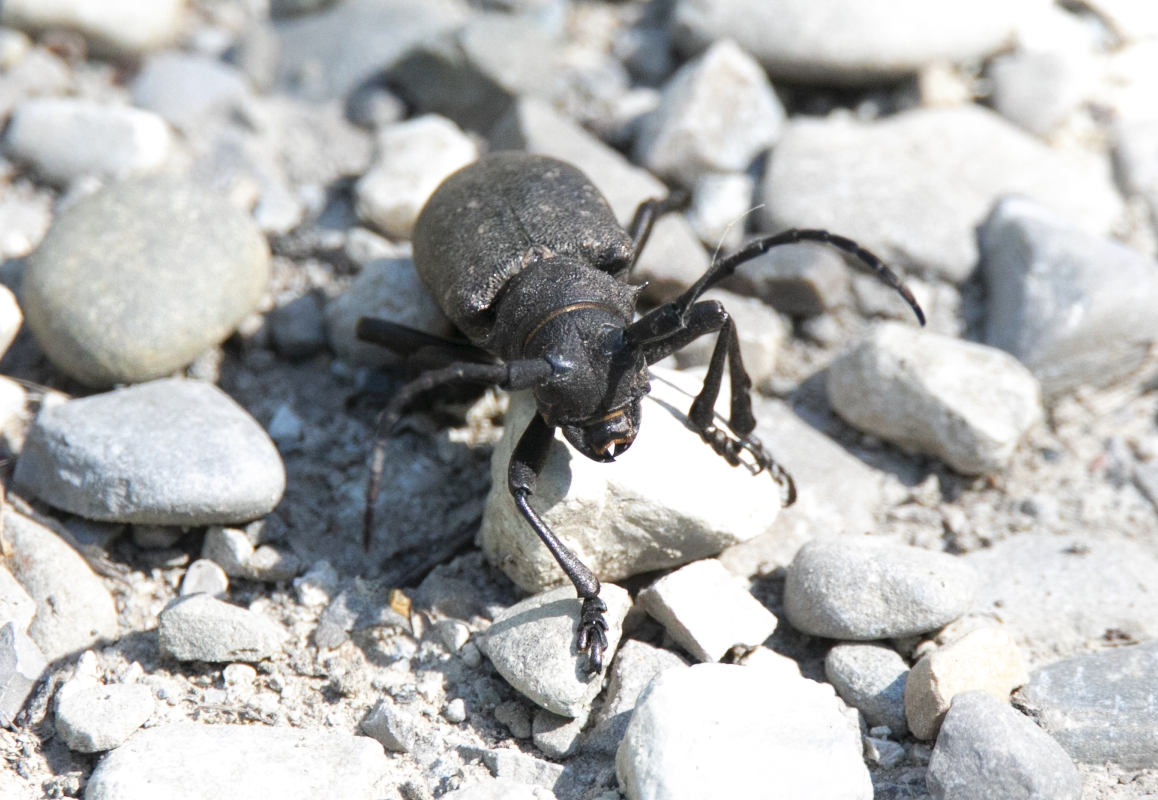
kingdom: Animalia
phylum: Arthropoda
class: Insecta
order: Coleoptera
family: Cerambycidae
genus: Lamia
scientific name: Lamia textor
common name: Weaver beetle
